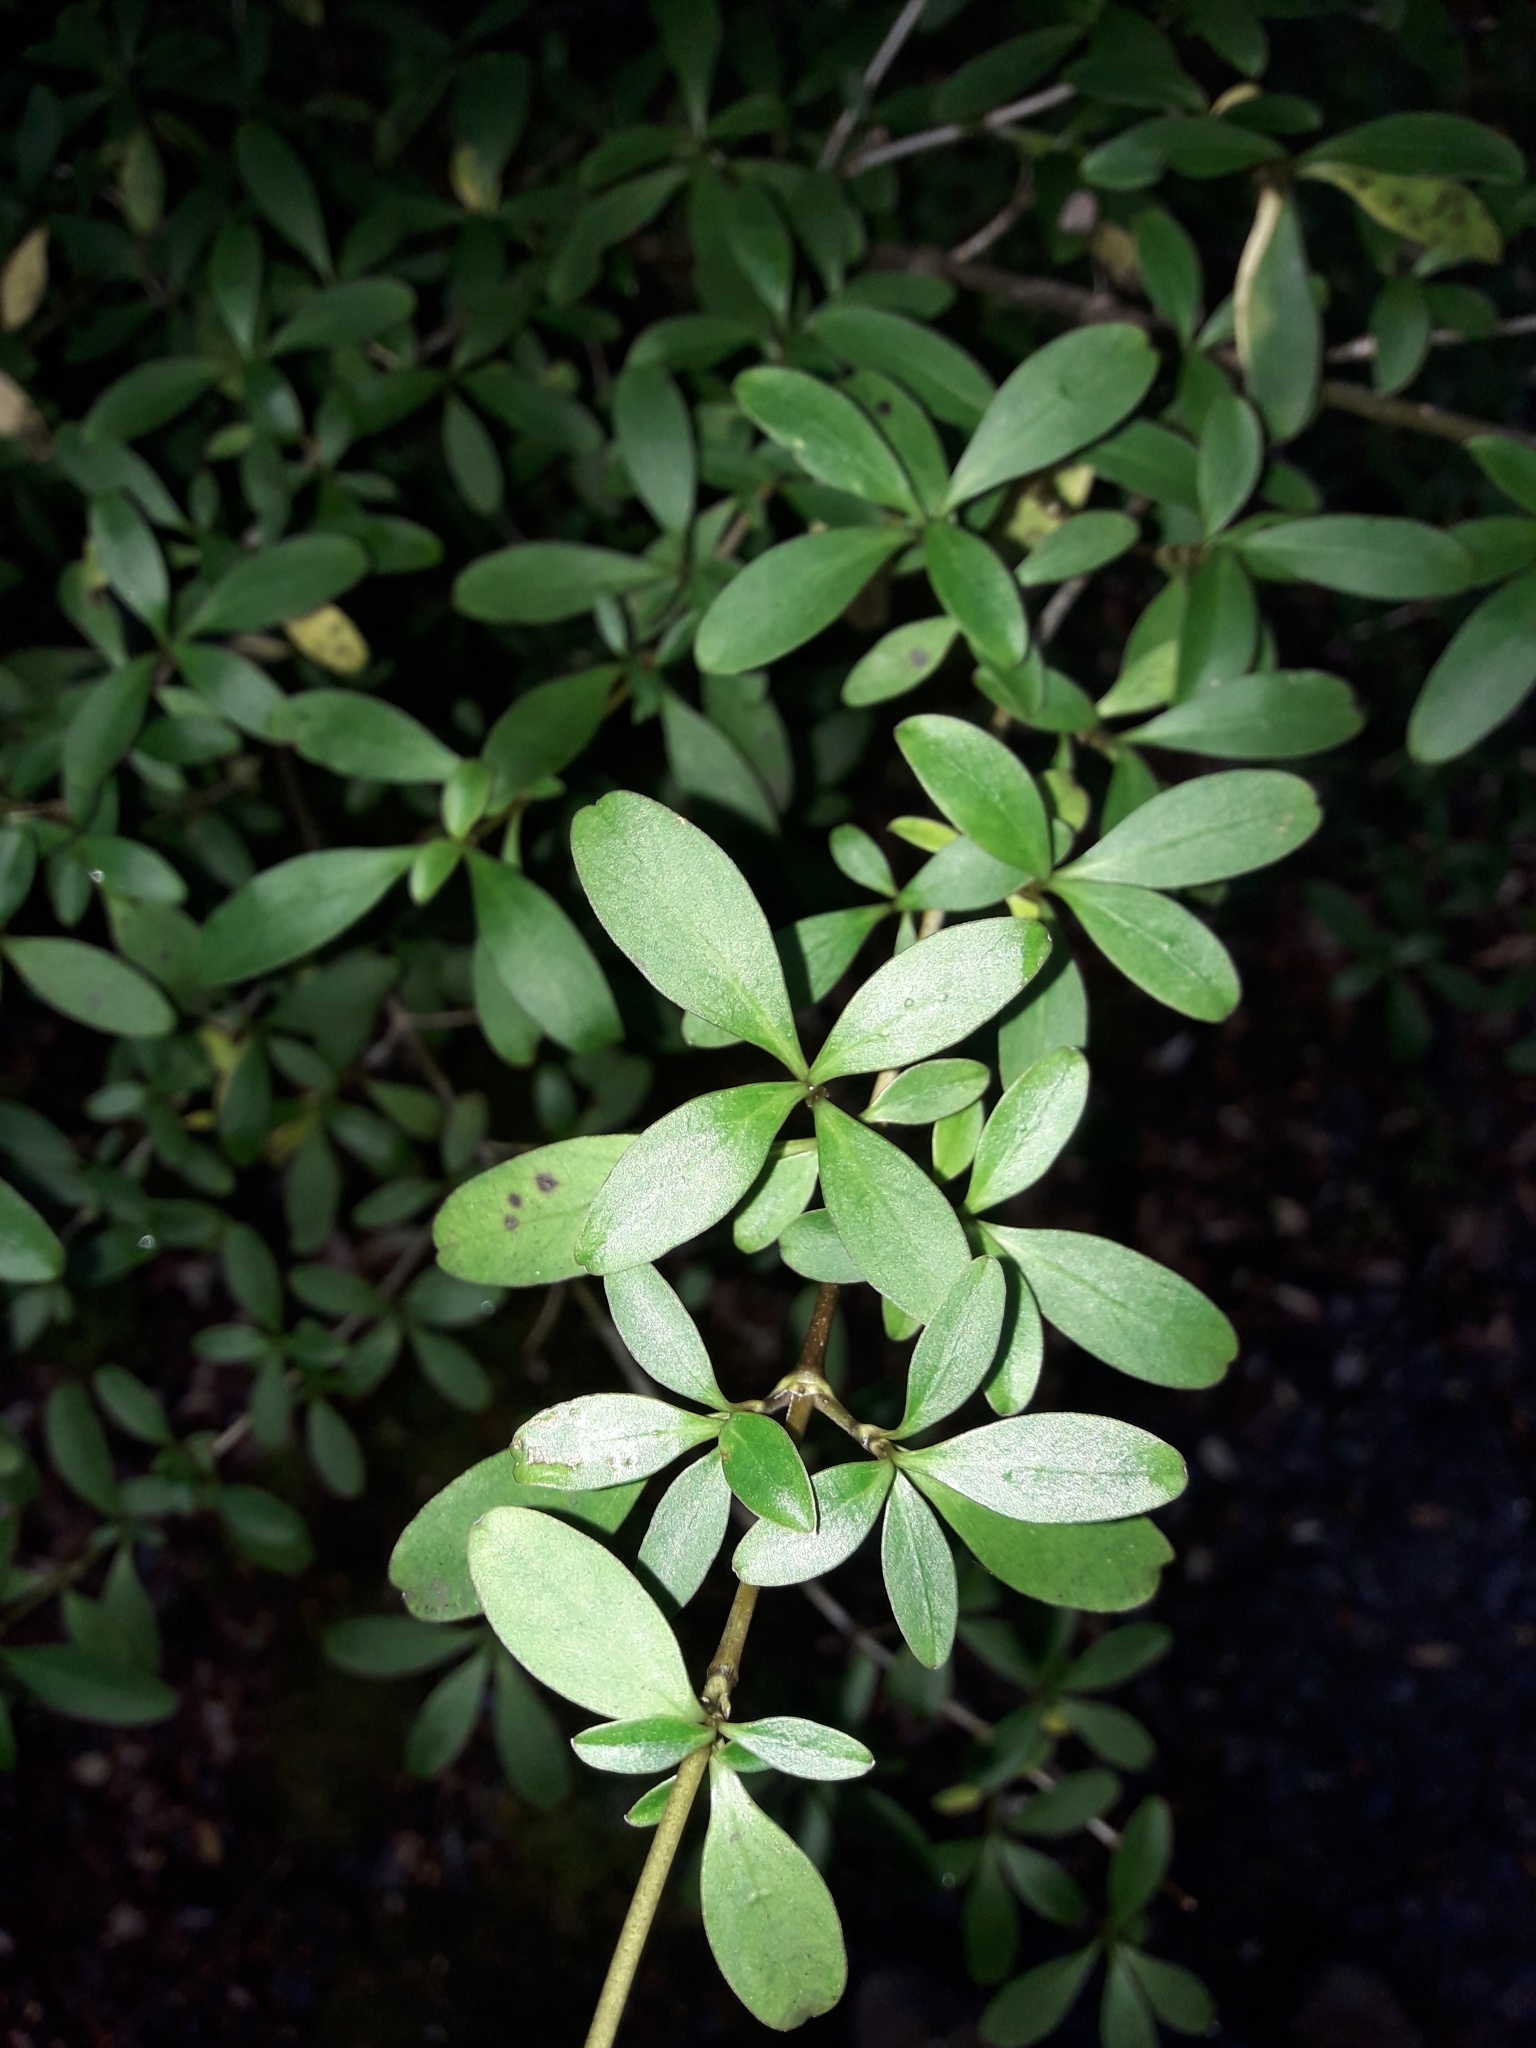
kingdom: Plantae
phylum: Tracheophyta
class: Magnoliopsida
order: Gentianales
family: Rubiaceae
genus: Coprosma
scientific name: Coprosma foetidissima
